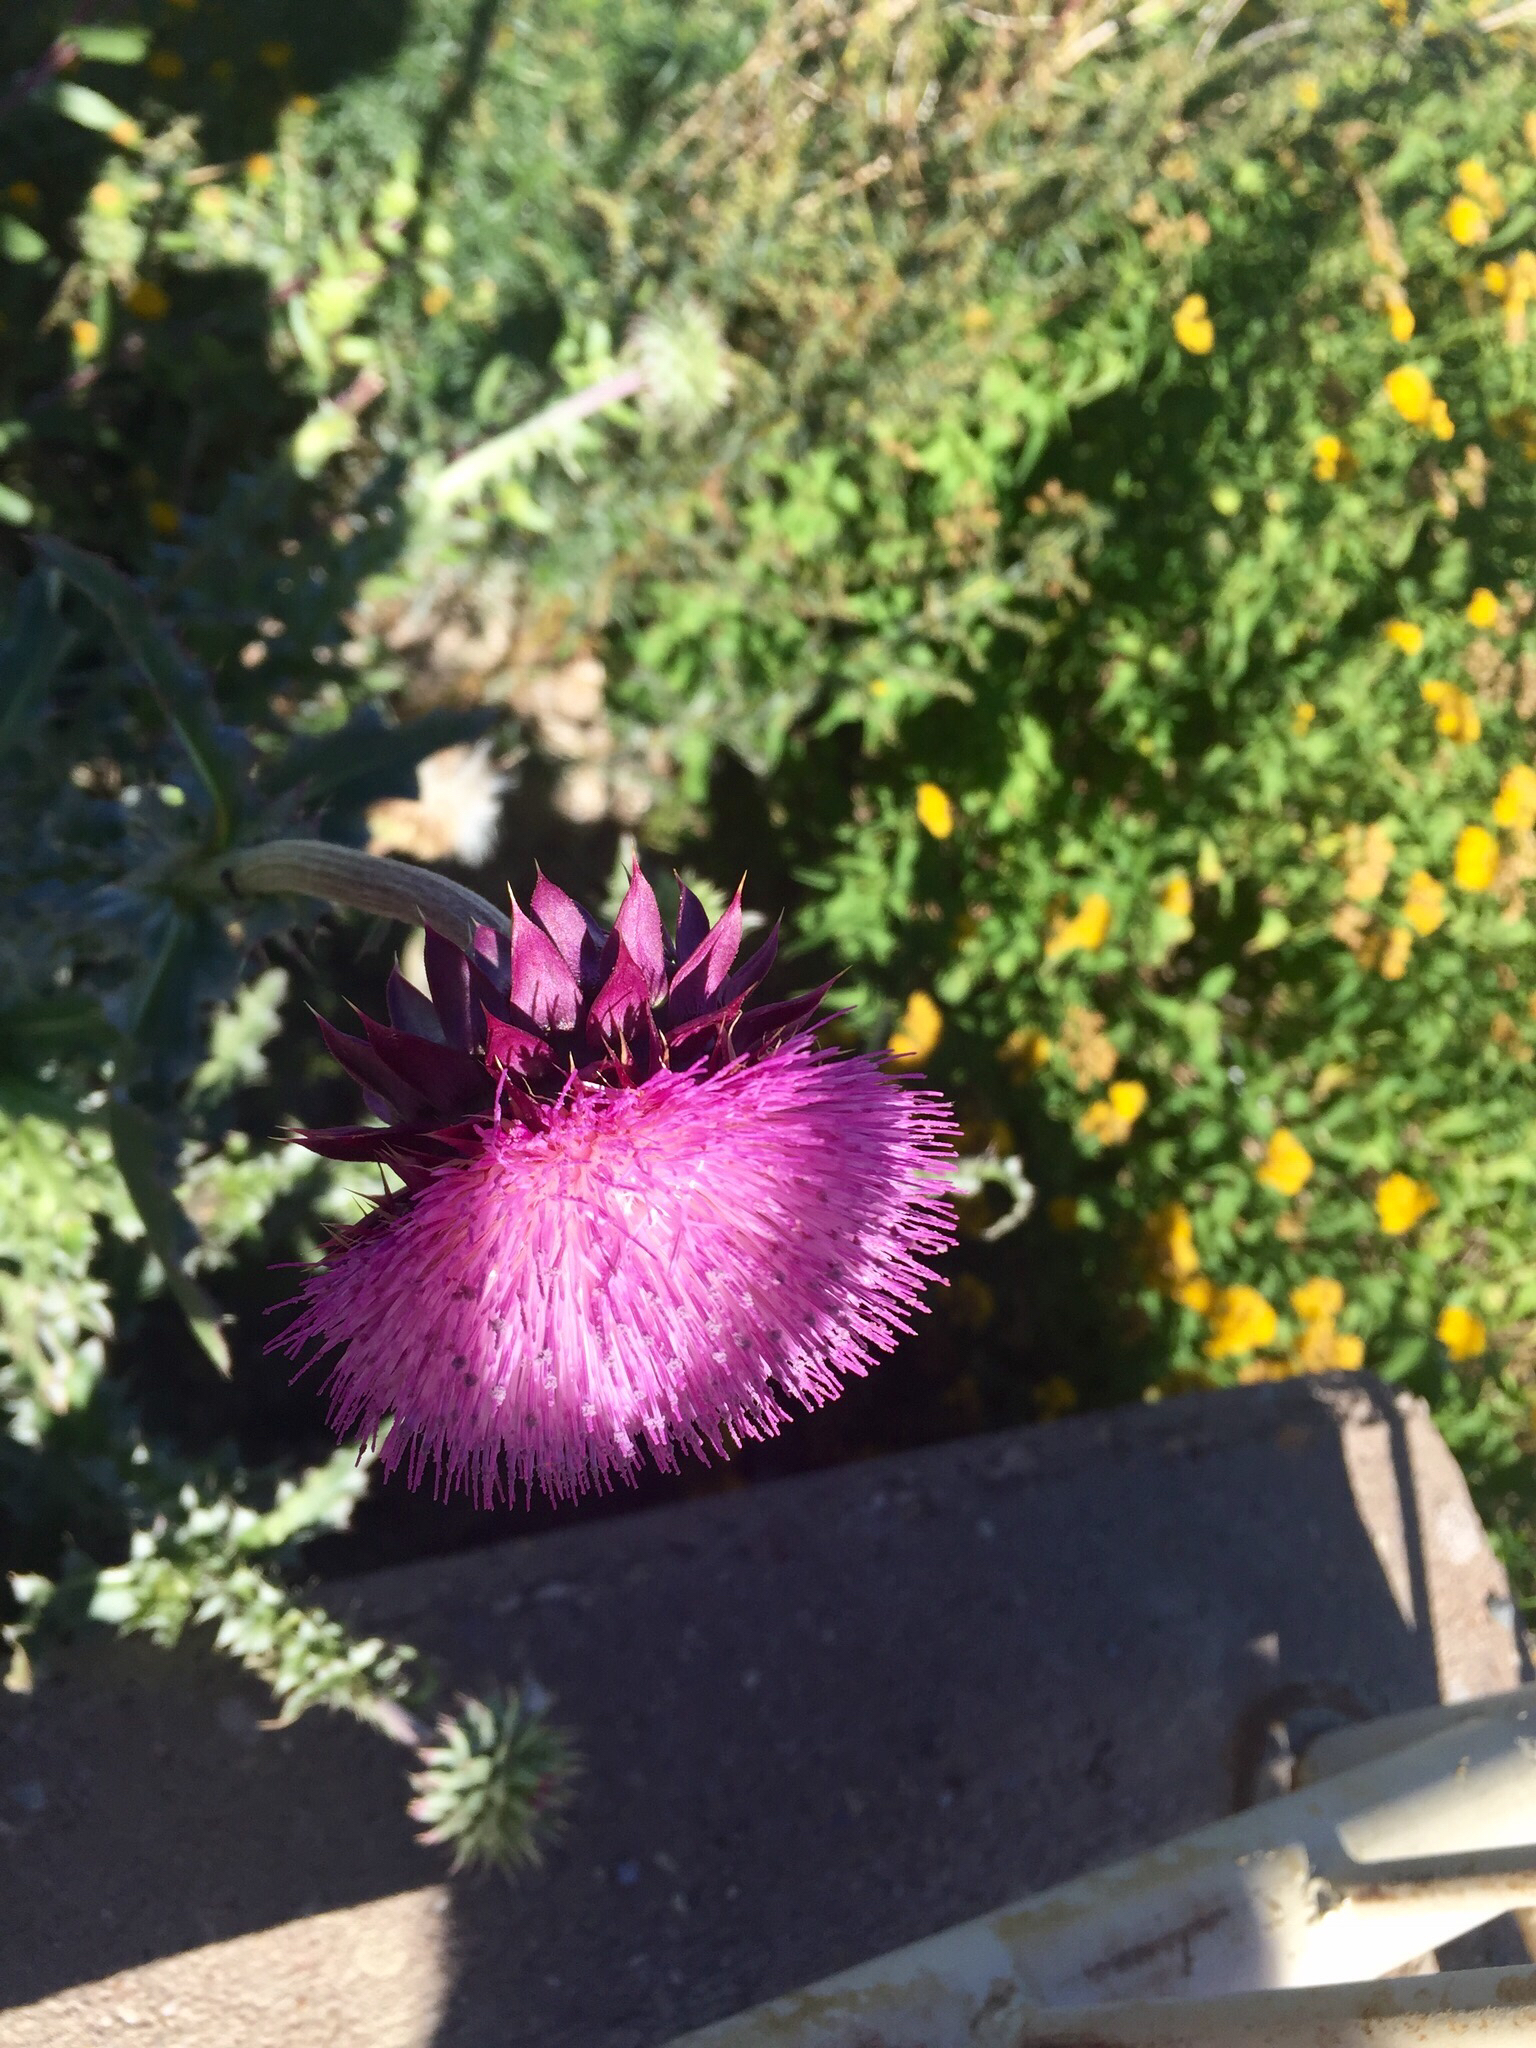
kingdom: Plantae
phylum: Tracheophyta
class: Magnoliopsida
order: Asterales
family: Asteraceae
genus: Carduus
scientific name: Carduus nutans
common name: Musk thistle
